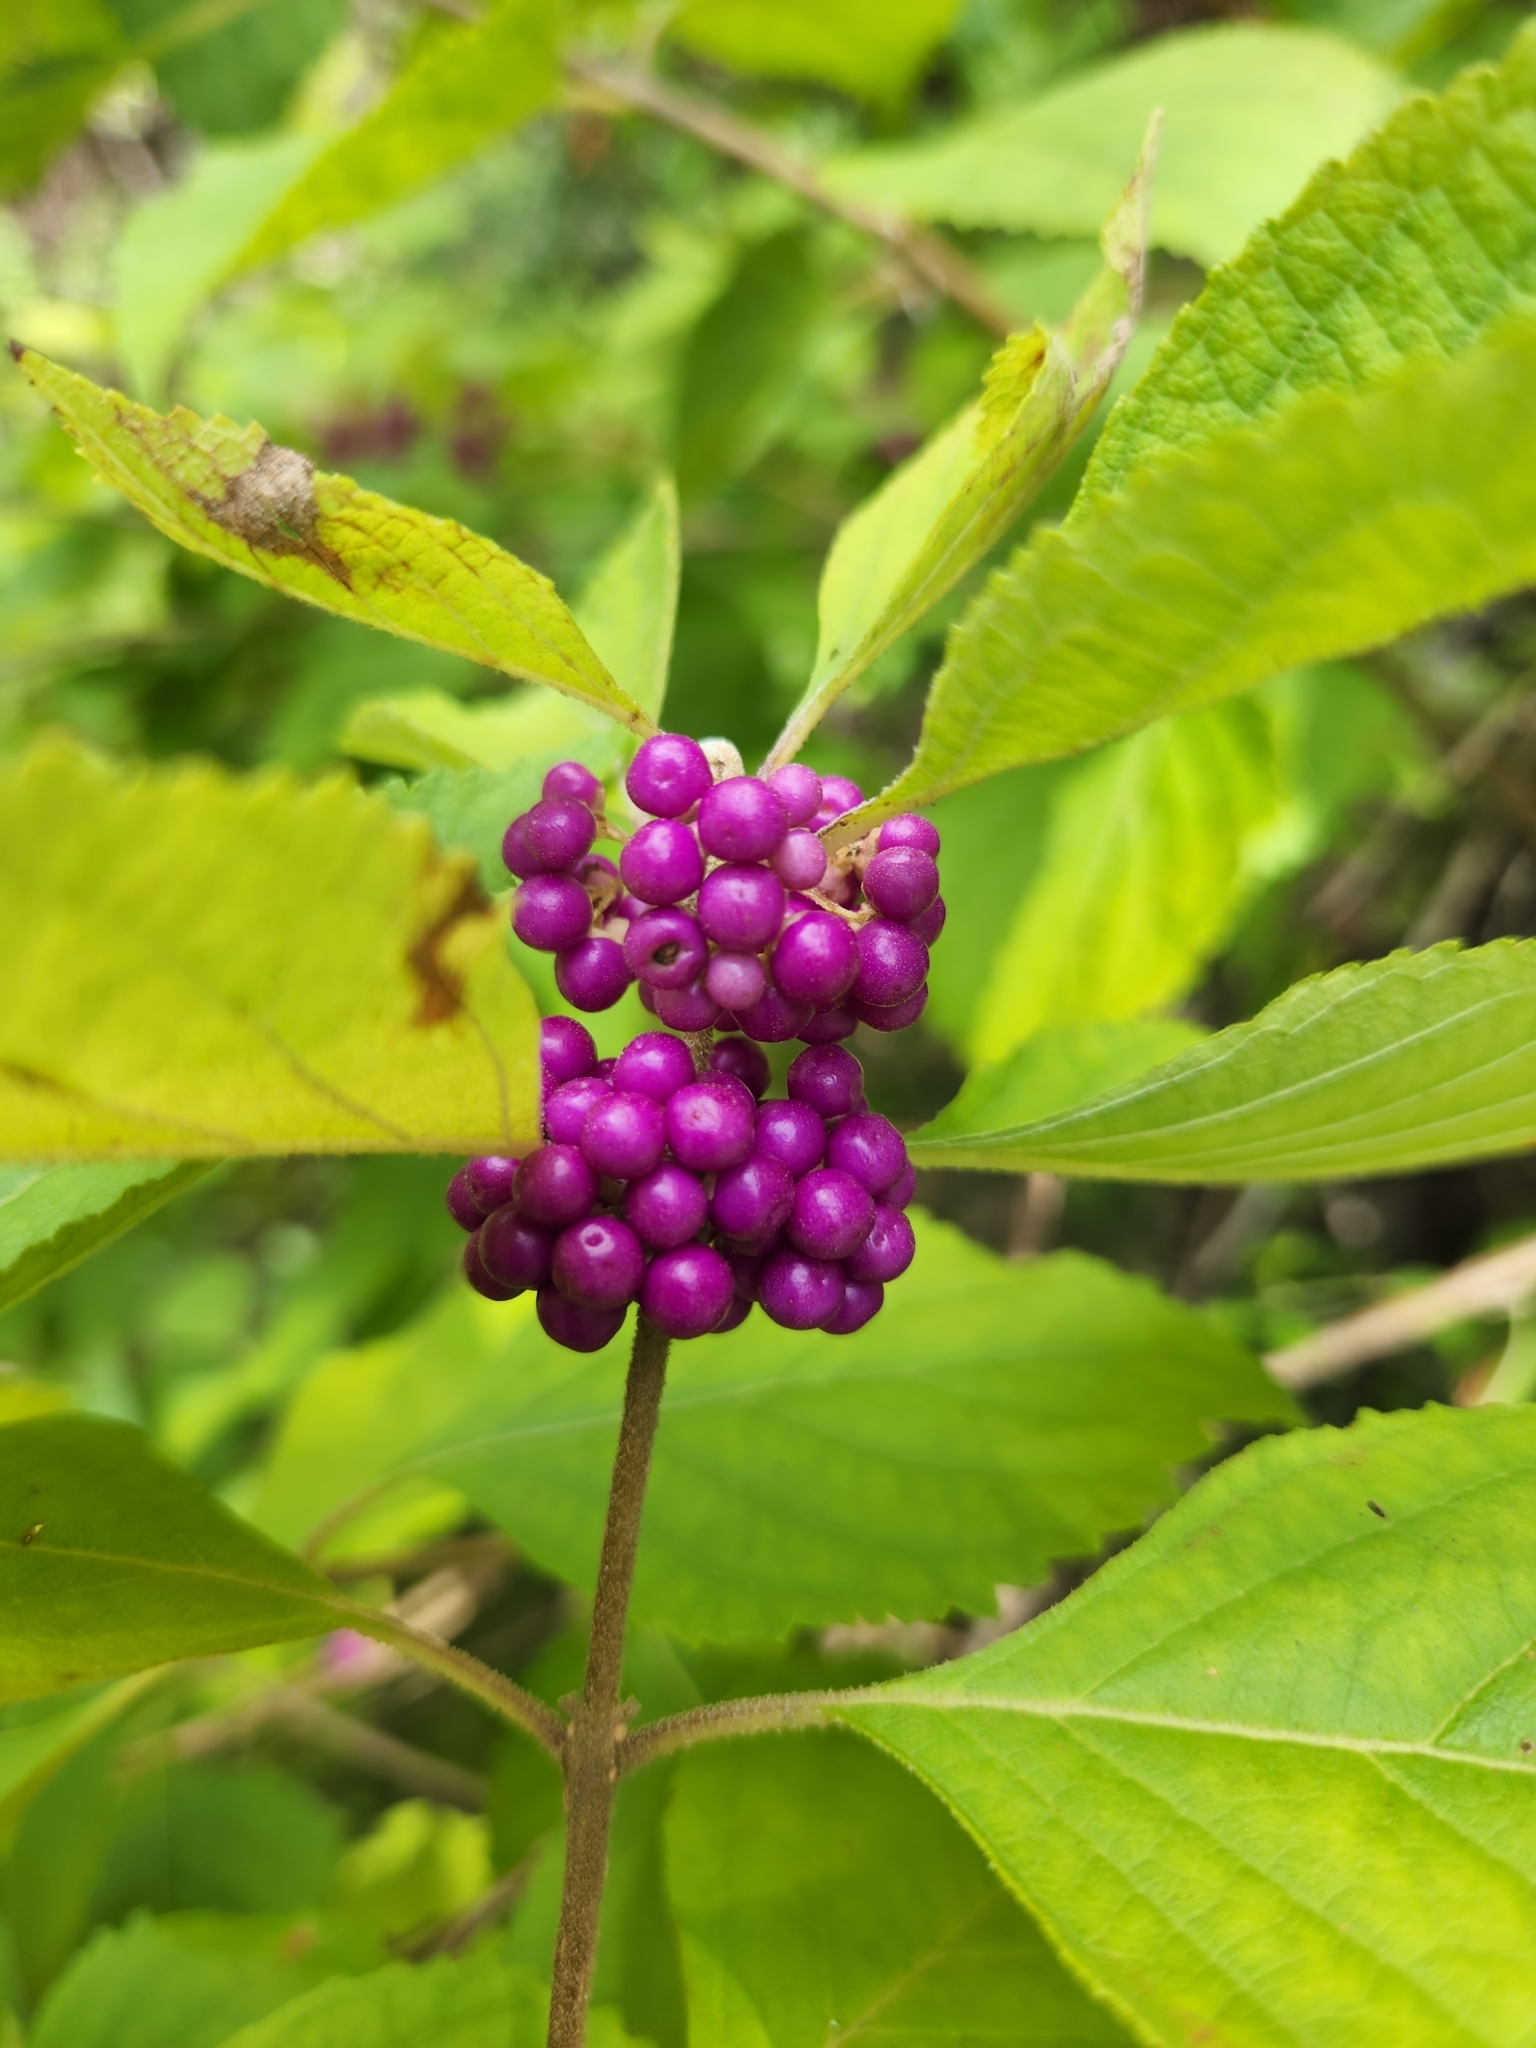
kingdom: Plantae
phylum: Tracheophyta
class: Magnoliopsida
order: Lamiales
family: Lamiaceae
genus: Callicarpa
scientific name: Callicarpa americana
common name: American beautyberry
